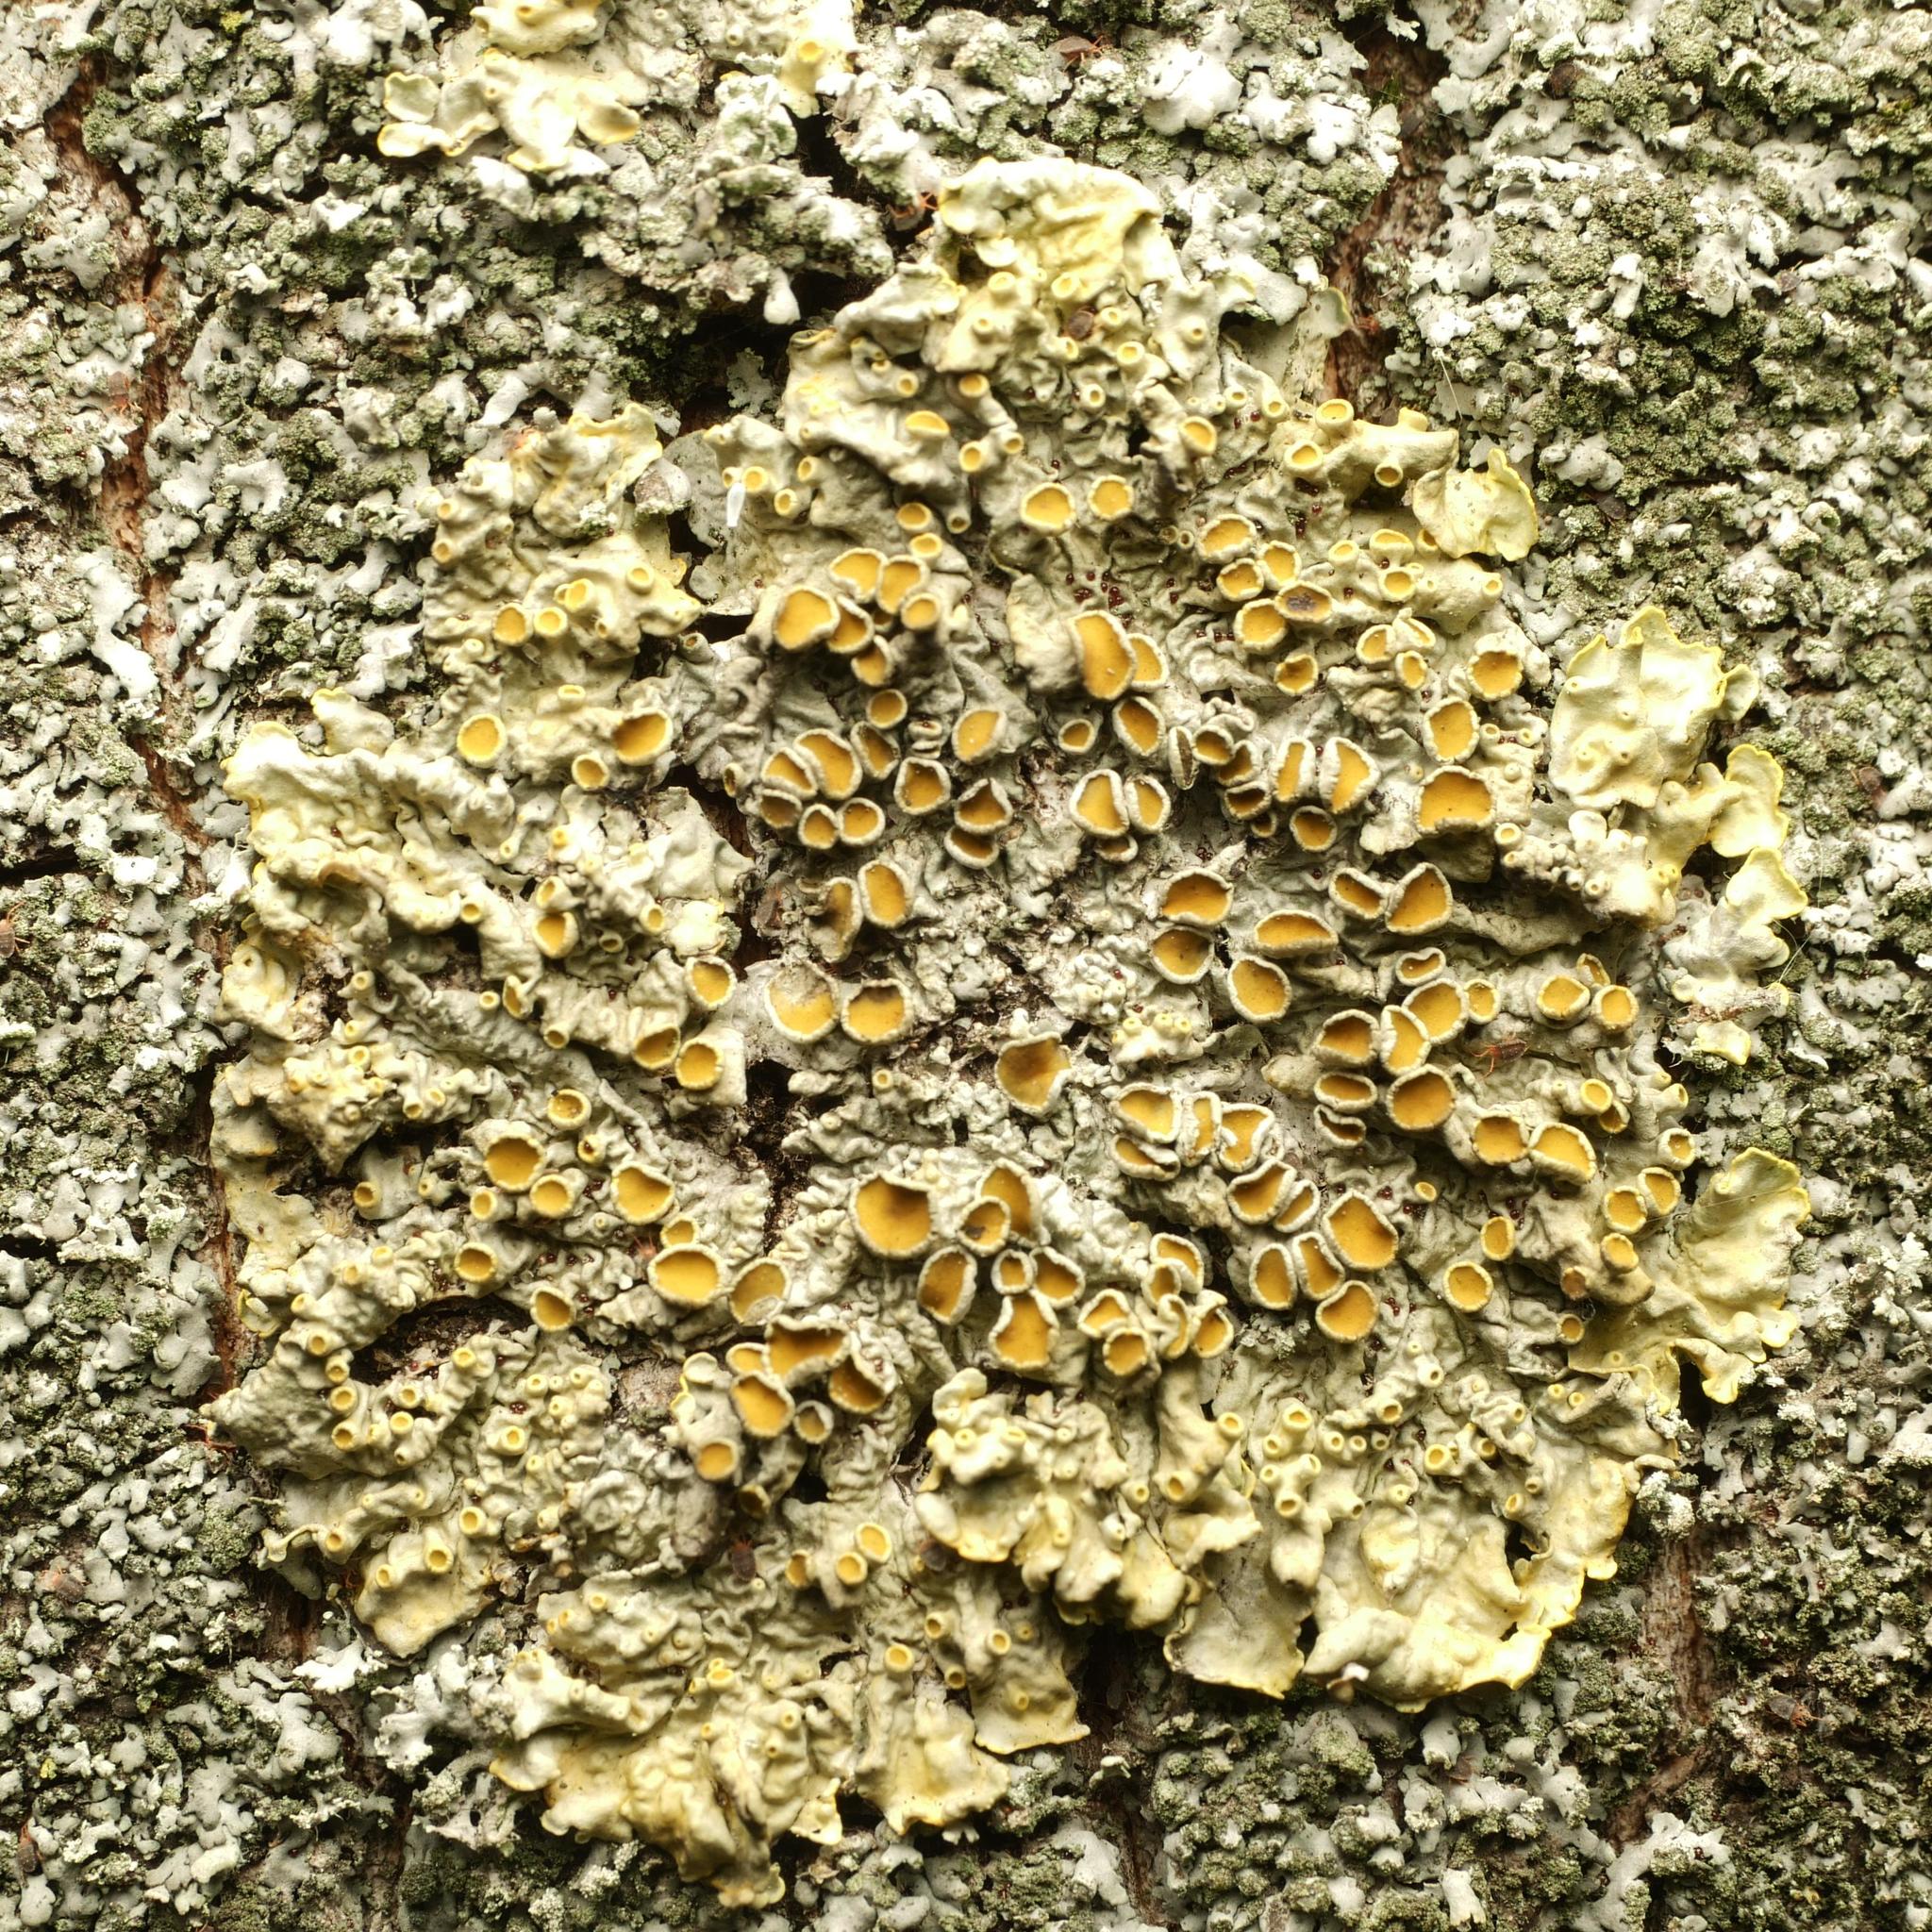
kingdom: Fungi
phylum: Ascomycota
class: Lecanoromycetes
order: Teloschistales
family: Teloschistaceae
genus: Xanthoria
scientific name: Xanthoria parietina
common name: Common orange lichen
